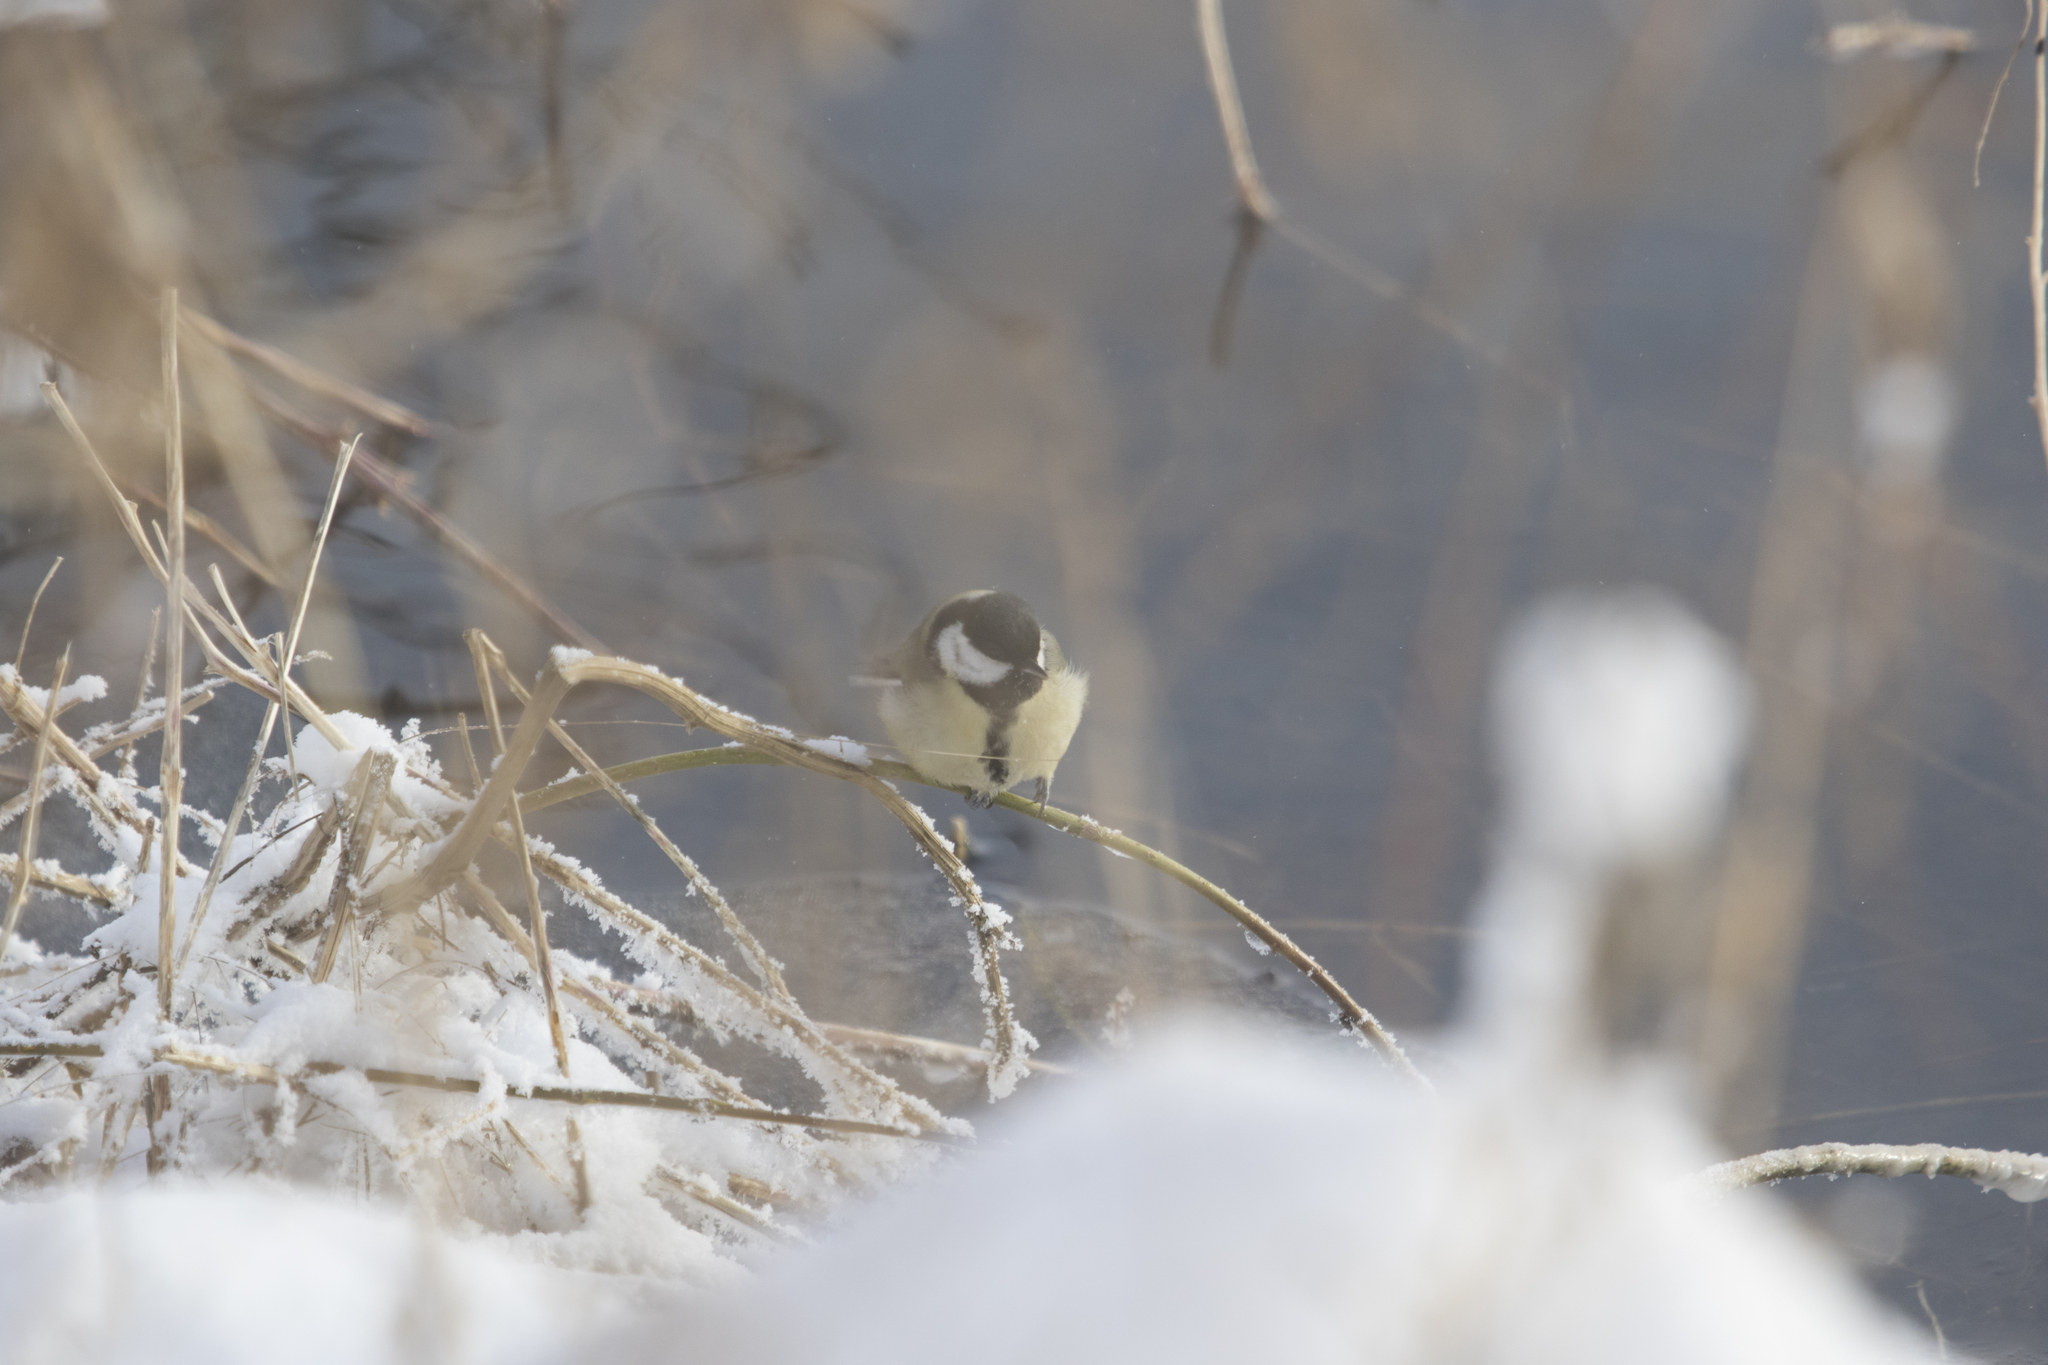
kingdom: Animalia
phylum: Chordata
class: Aves
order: Passeriformes
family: Paridae
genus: Parus
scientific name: Parus major
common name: Great tit
